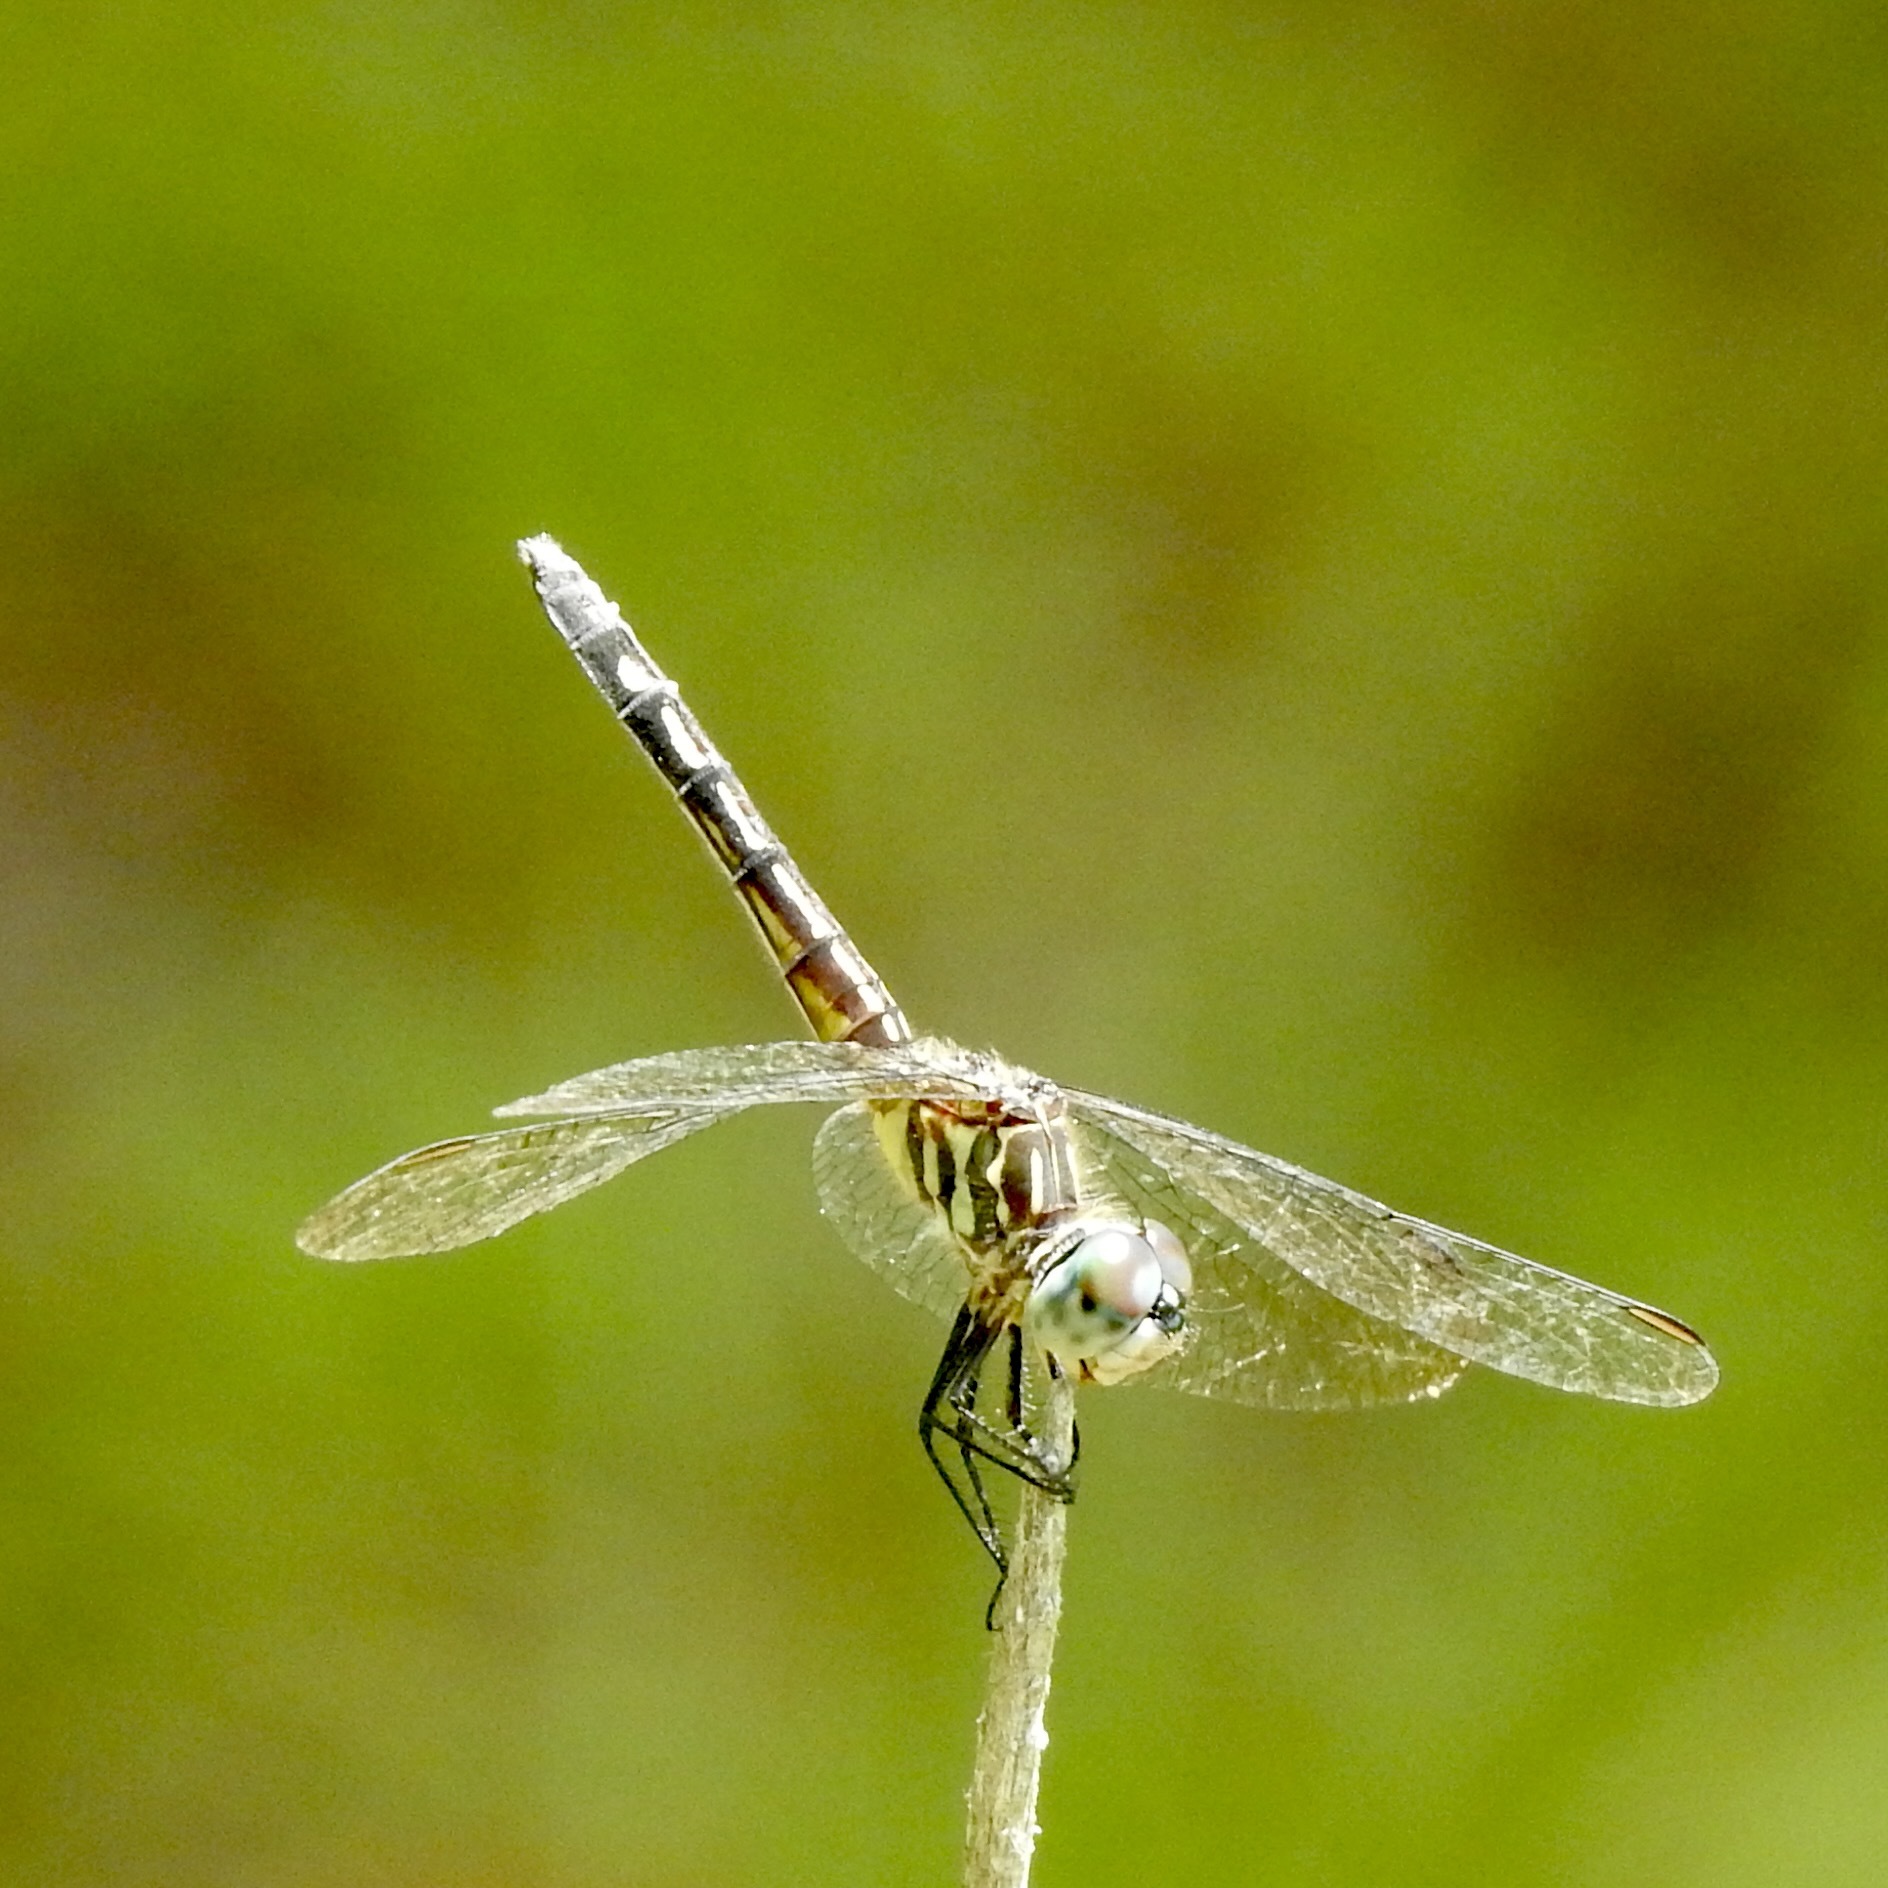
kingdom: Animalia
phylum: Arthropoda
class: Insecta
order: Odonata
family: Libellulidae
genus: Pachydiplax
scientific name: Pachydiplax longipennis
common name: Blue dasher
